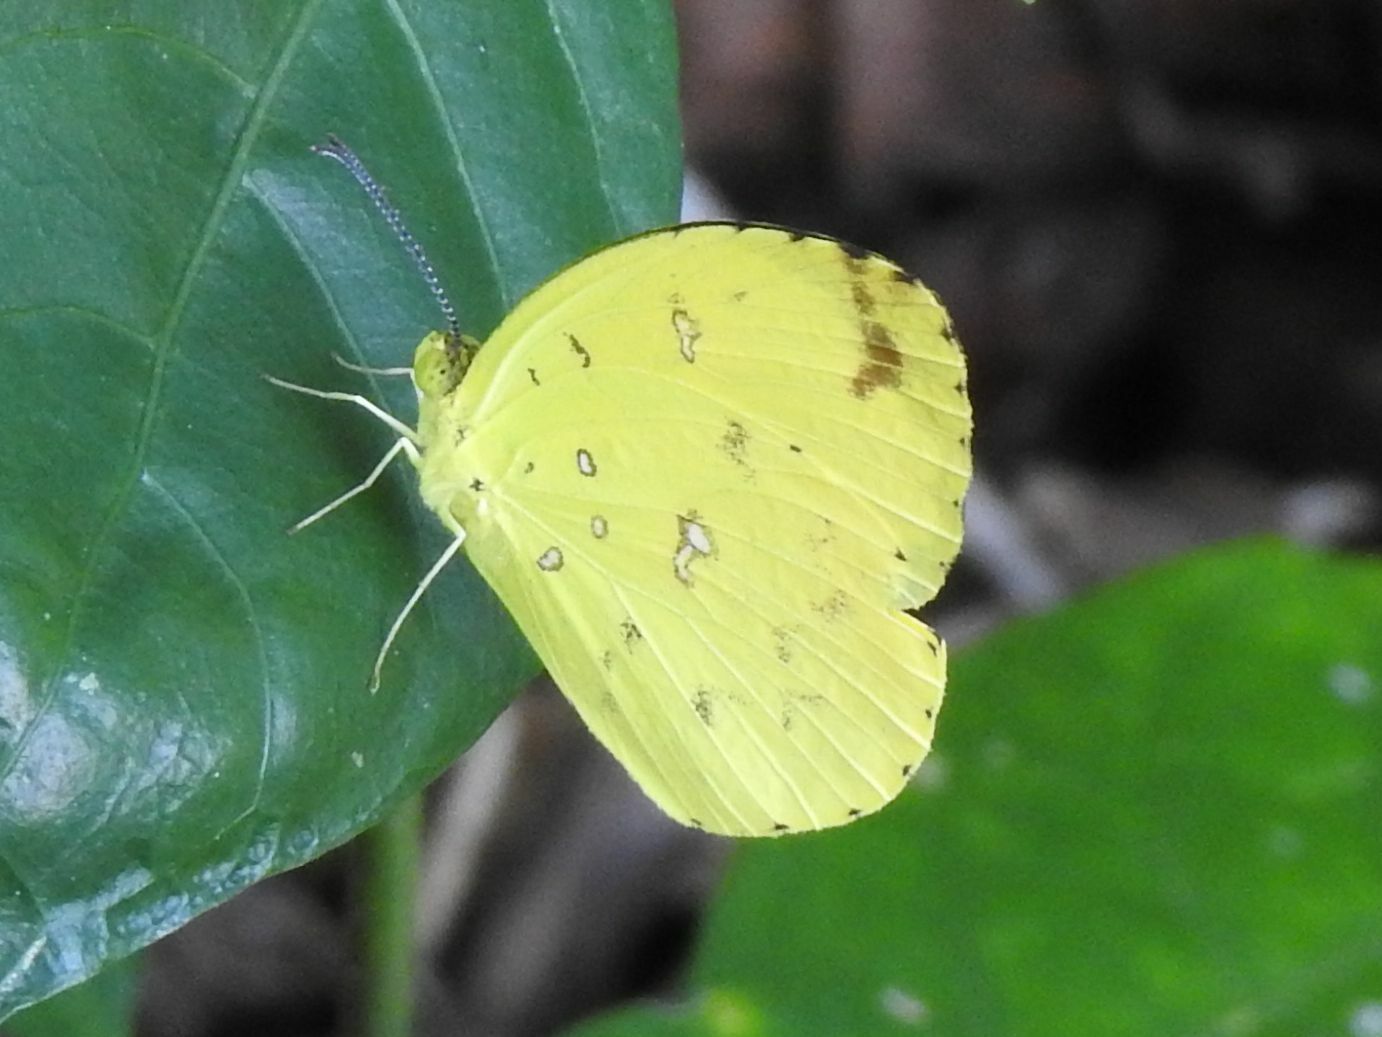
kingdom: Animalia
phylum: Arthropoda
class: Insecta
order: Lepidoptera
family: Pieridae
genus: Eurema
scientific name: Eurema floricola
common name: Malagasy grass yellow
